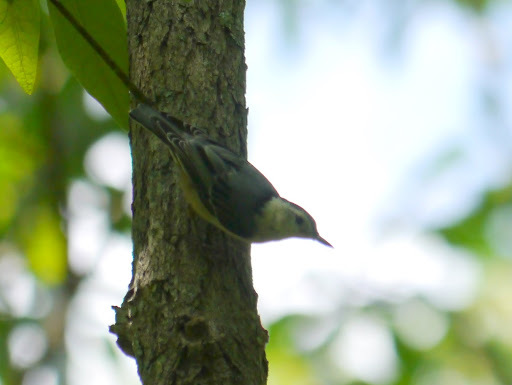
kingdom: Animalia
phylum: Chordata
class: Aves
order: Passeriformes
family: Sittidae
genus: Sitta
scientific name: Sitta carolinensis
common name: White-breasted nuthatch
